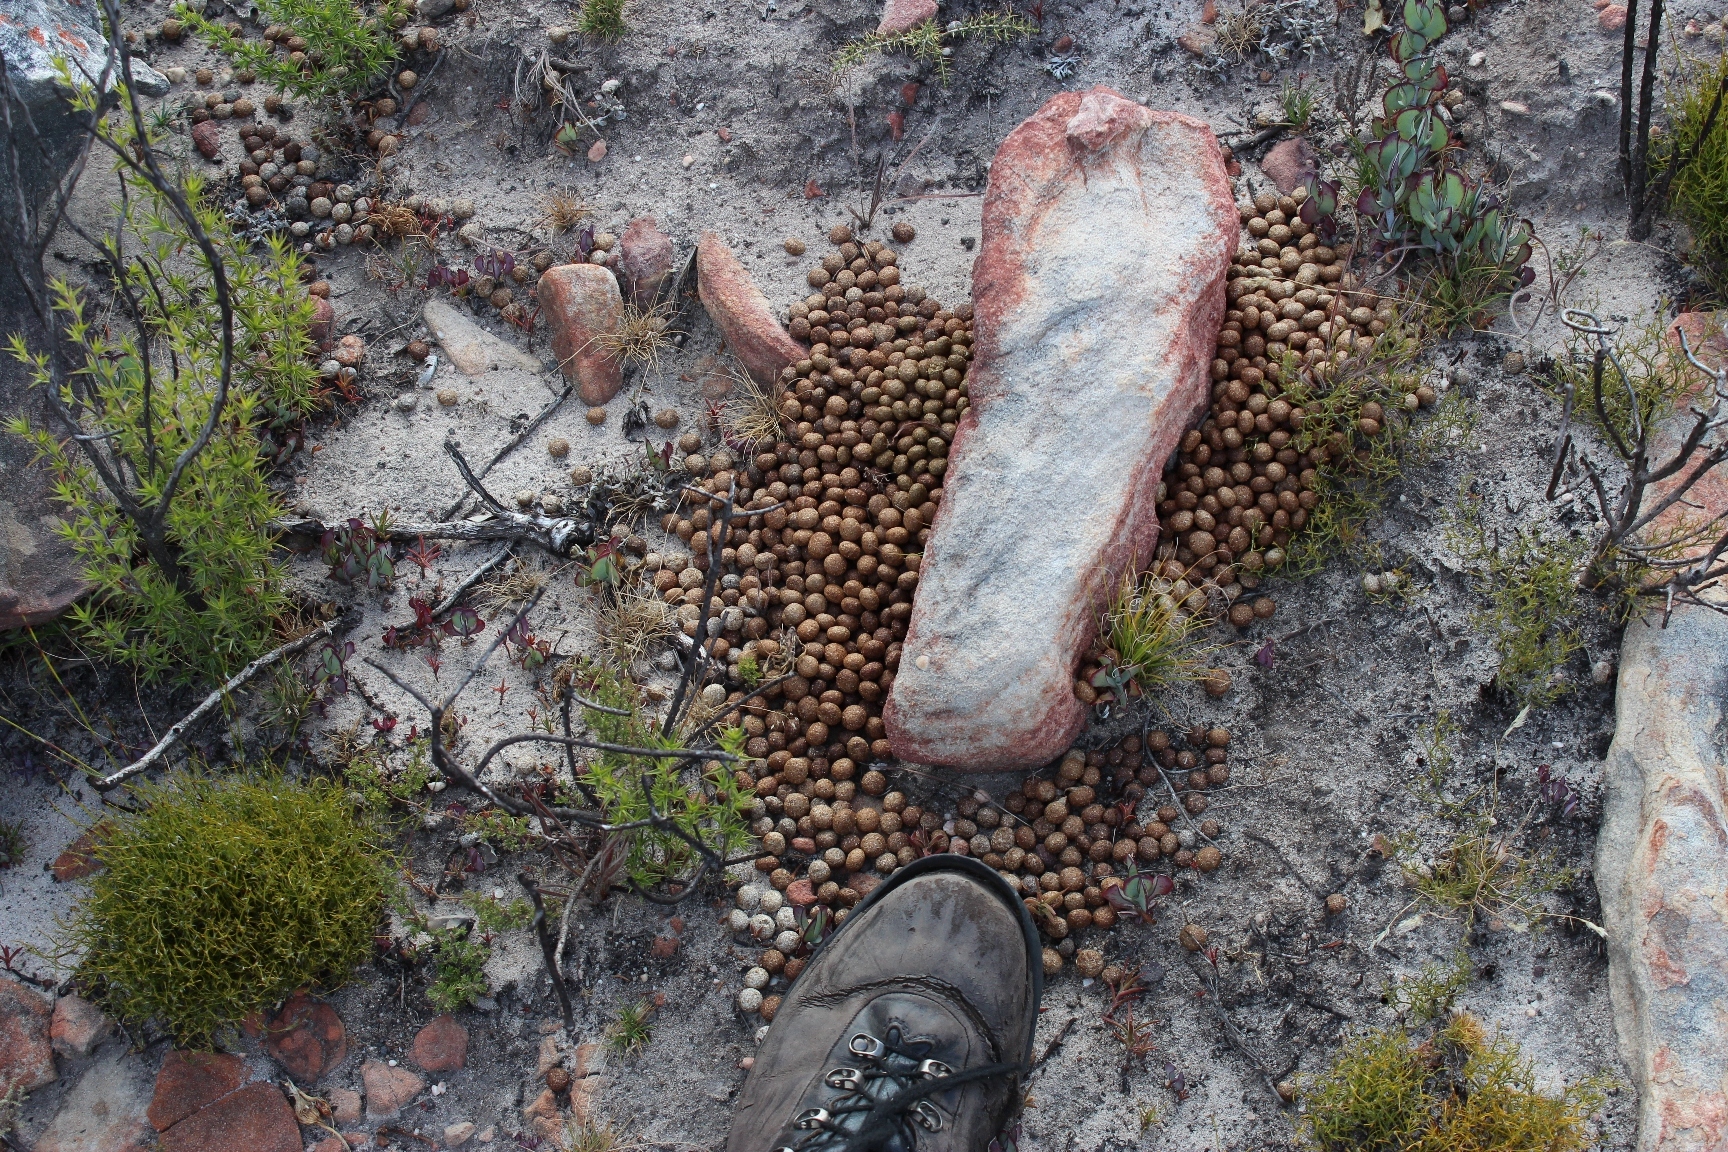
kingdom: Animalia
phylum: Chordata
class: Mammalia
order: Lagomorpha
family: Leporidae
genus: Pronolagus
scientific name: Pronolagus saundersiae
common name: Hewitt's red rock hare
